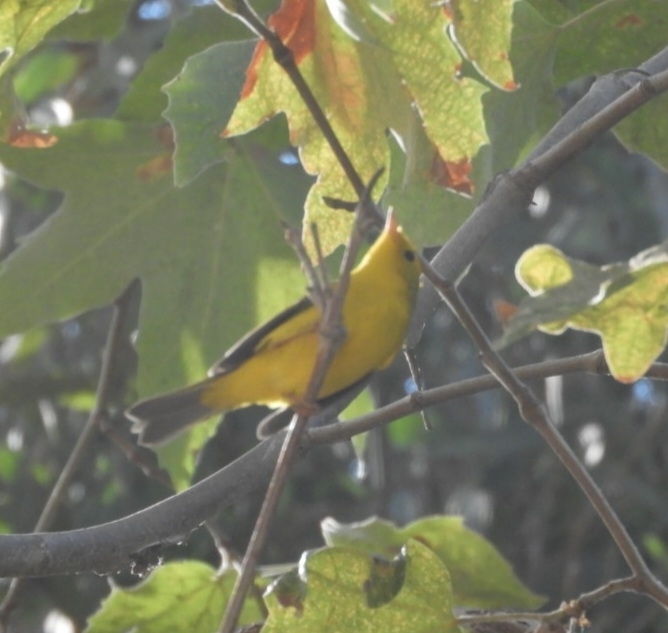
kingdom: Animalia
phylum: Chordata
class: Aves
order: Passeriformes
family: Parulidae
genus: Cardellina
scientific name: Cardellina pusilla
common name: Wilson's warbler
